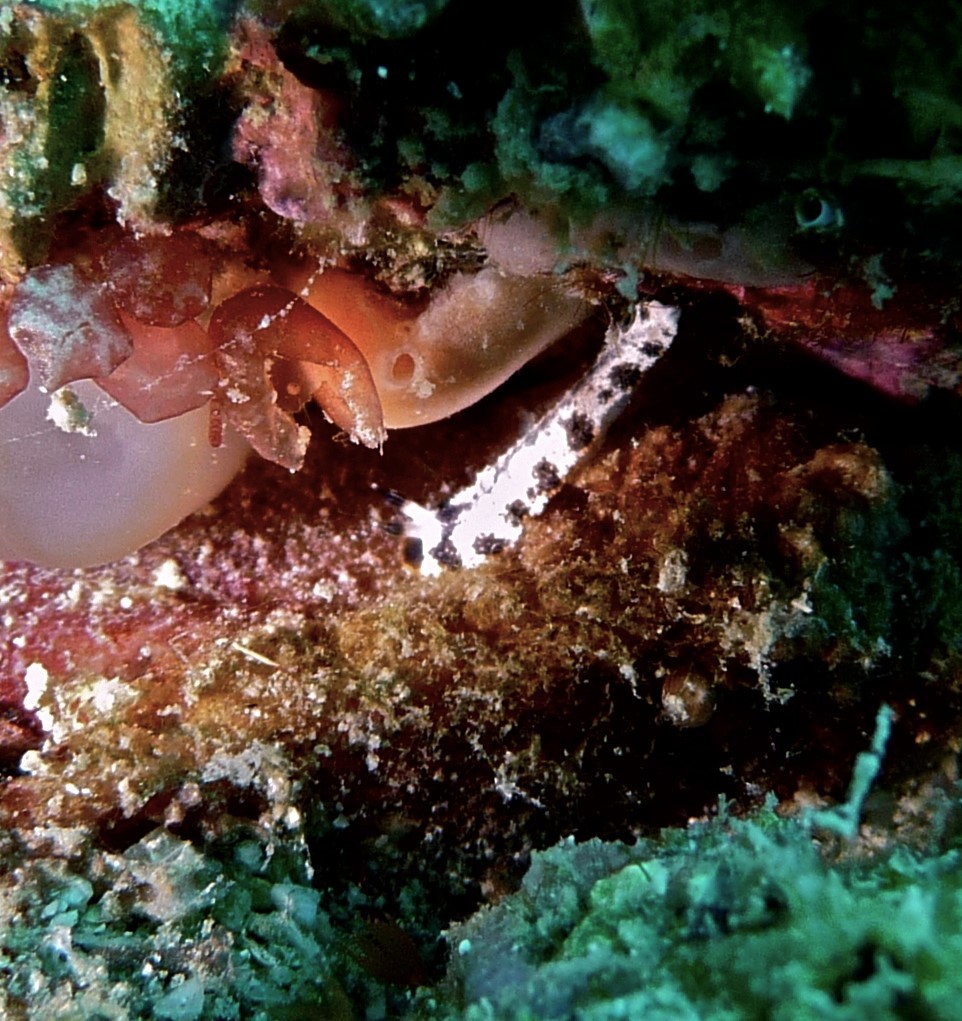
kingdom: Animalia
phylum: Mollusca
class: Gastropoda
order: Nudibranchia
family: Arminidae
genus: Dermatobranchus
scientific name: Dermatobranchus fortunatus
